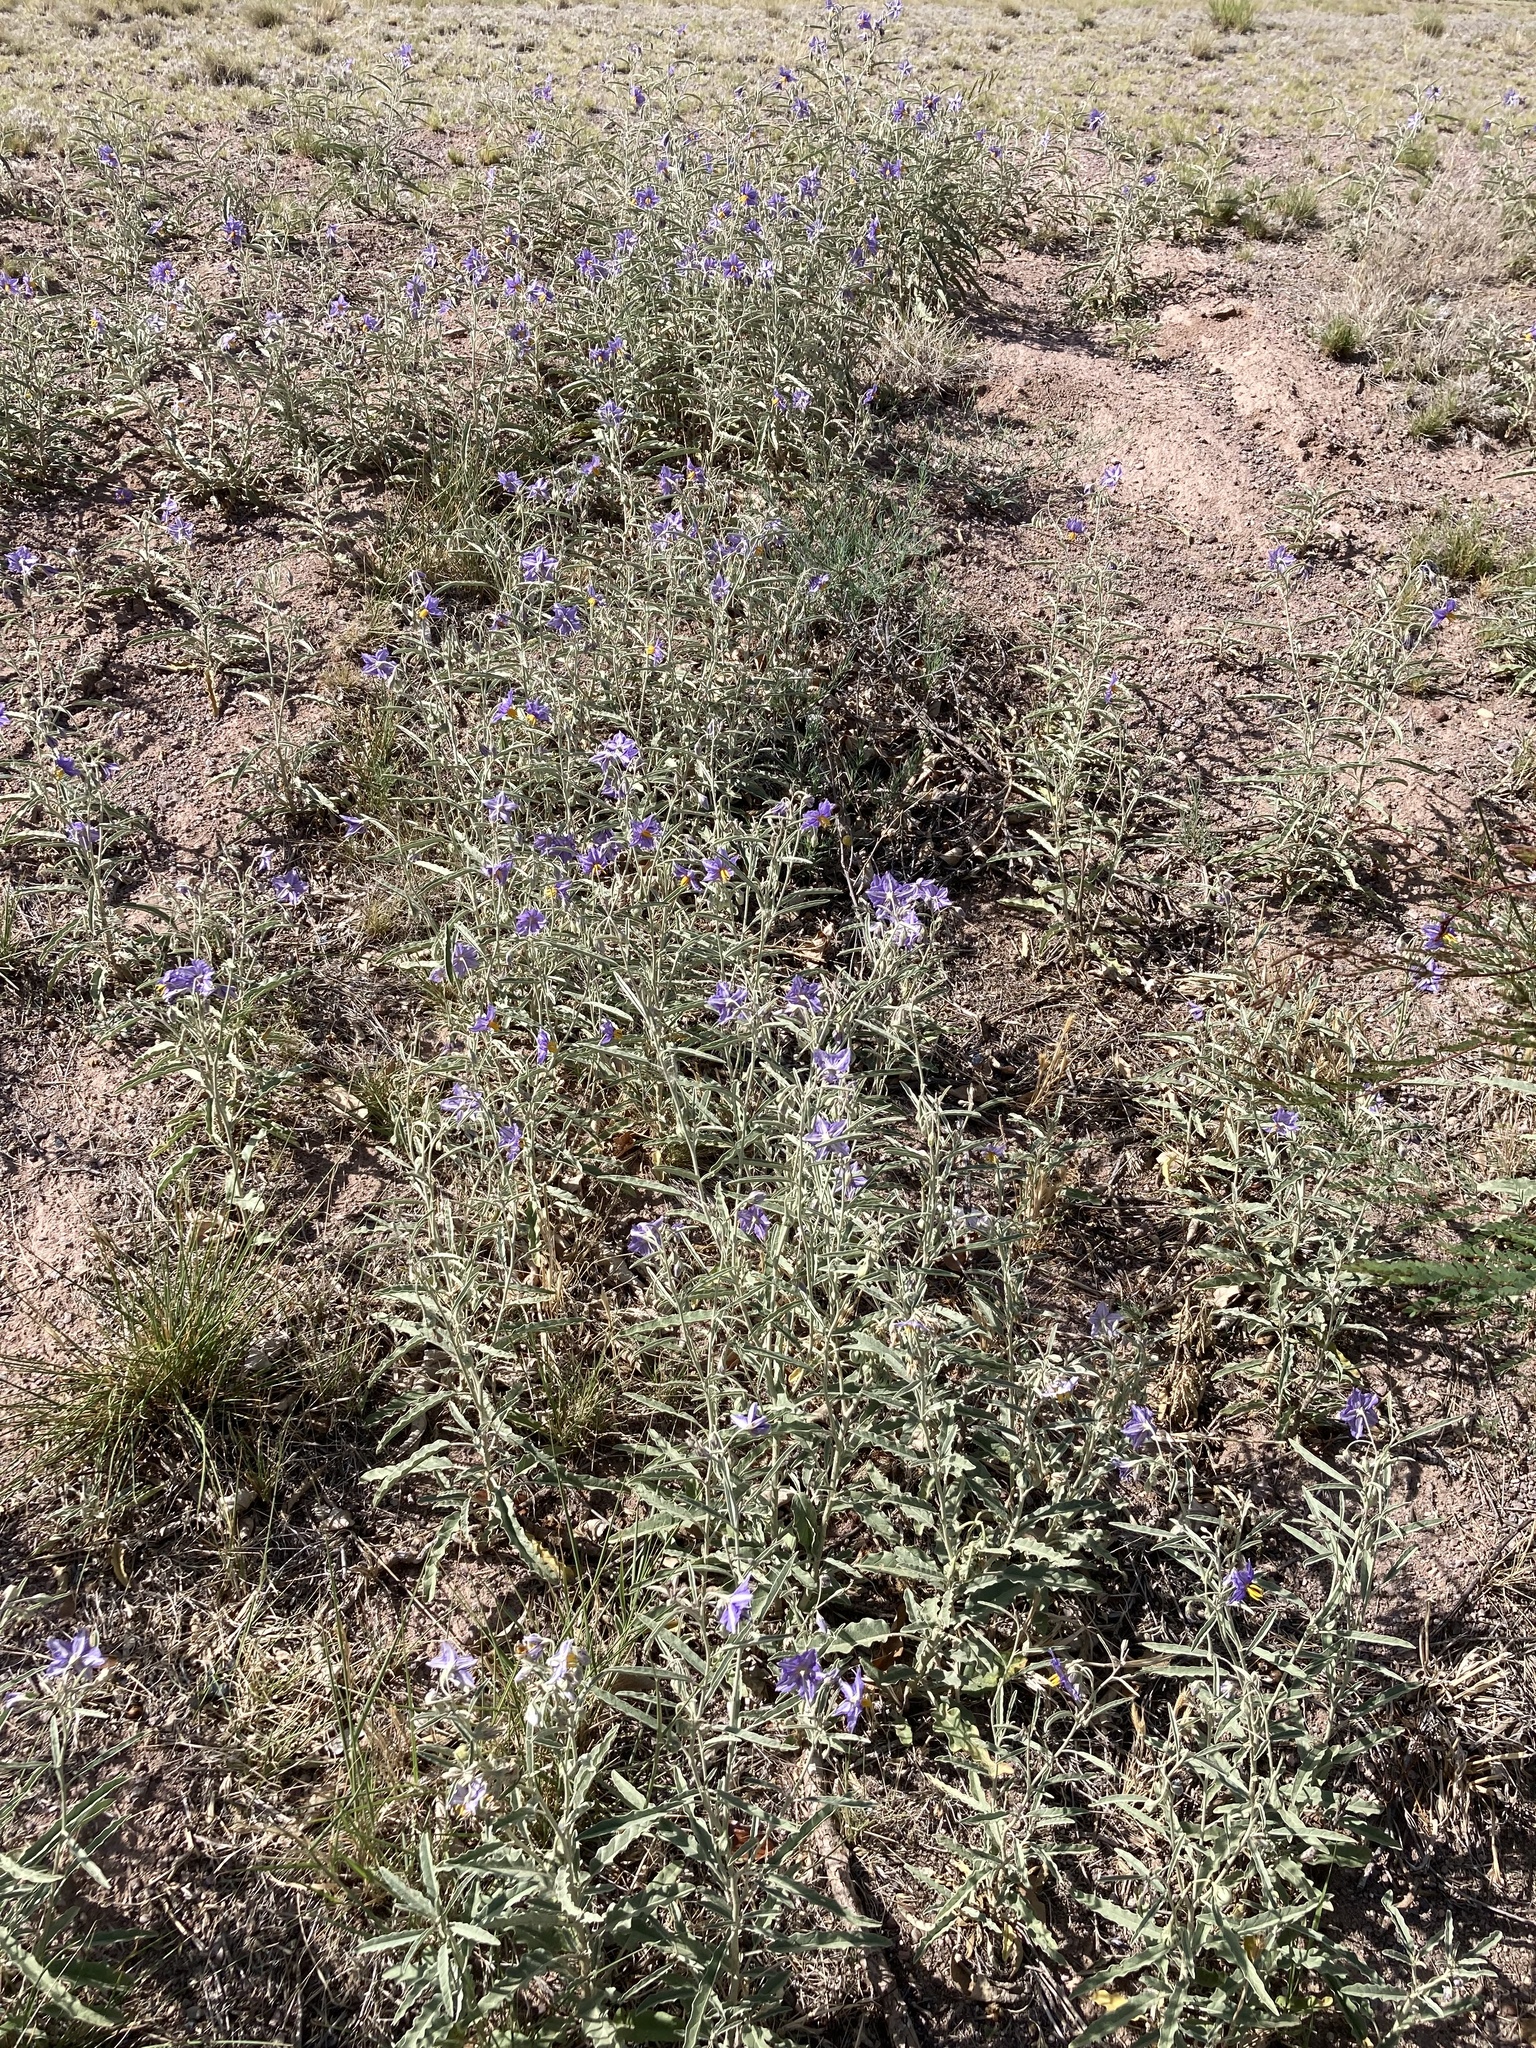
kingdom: Plantae
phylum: Tracheophyta
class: Magnoliopsida
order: Solanales
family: Solanaceae
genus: Solanum
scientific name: Solanum elaeagnifolium
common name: Silverleaf nightshade
